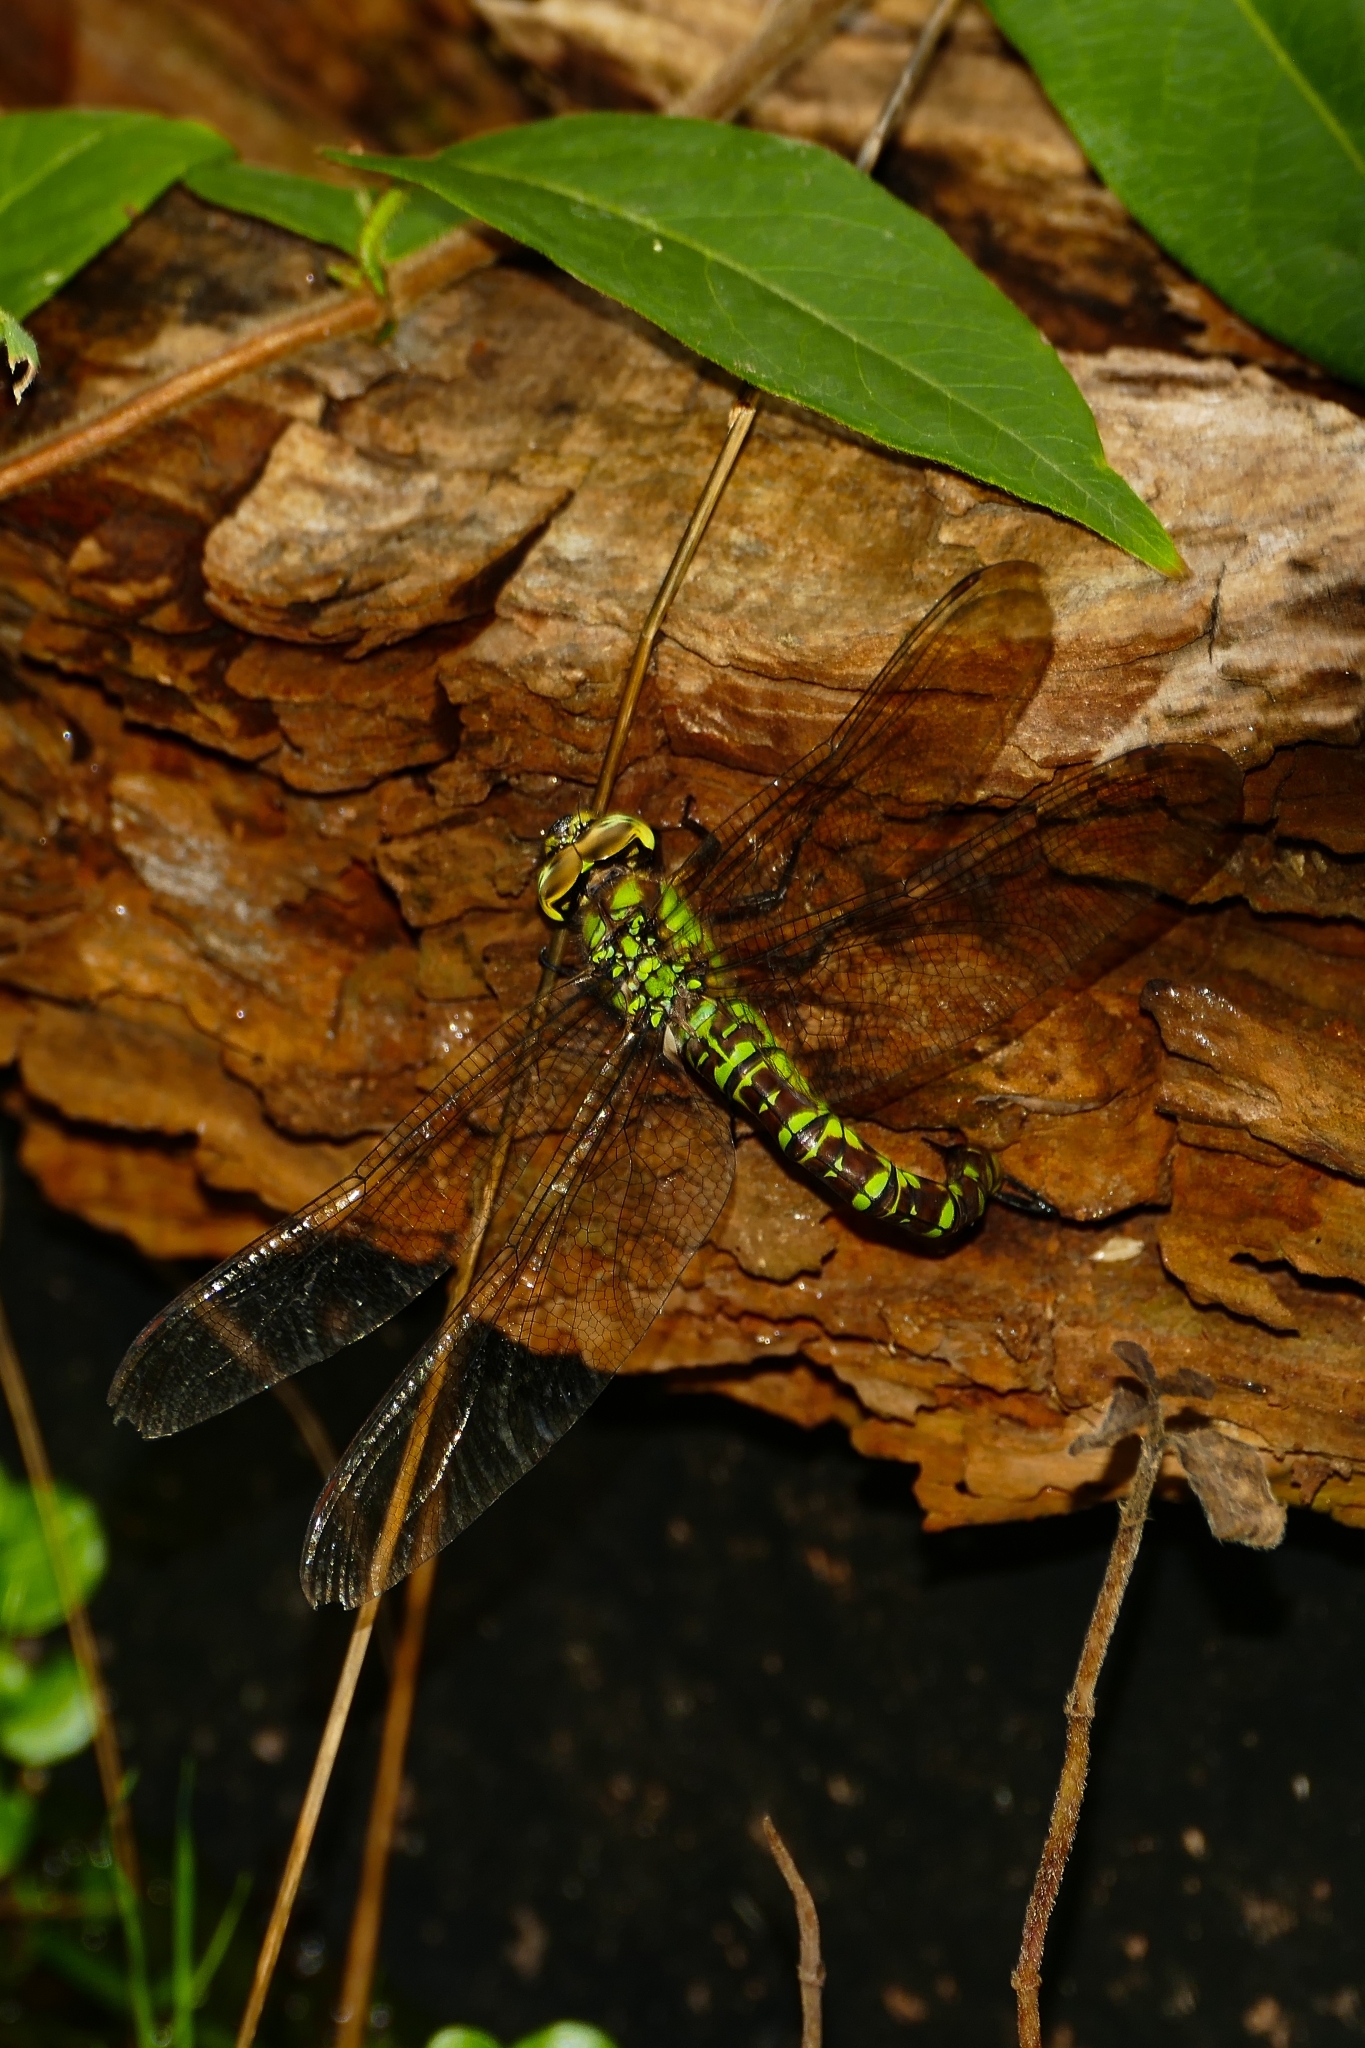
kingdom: Animalia
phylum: Arthropoda
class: Insecta
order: Odonata
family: Aeshnidae
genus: Aeshna
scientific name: Aeshna cyanea
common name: Southern hawker
